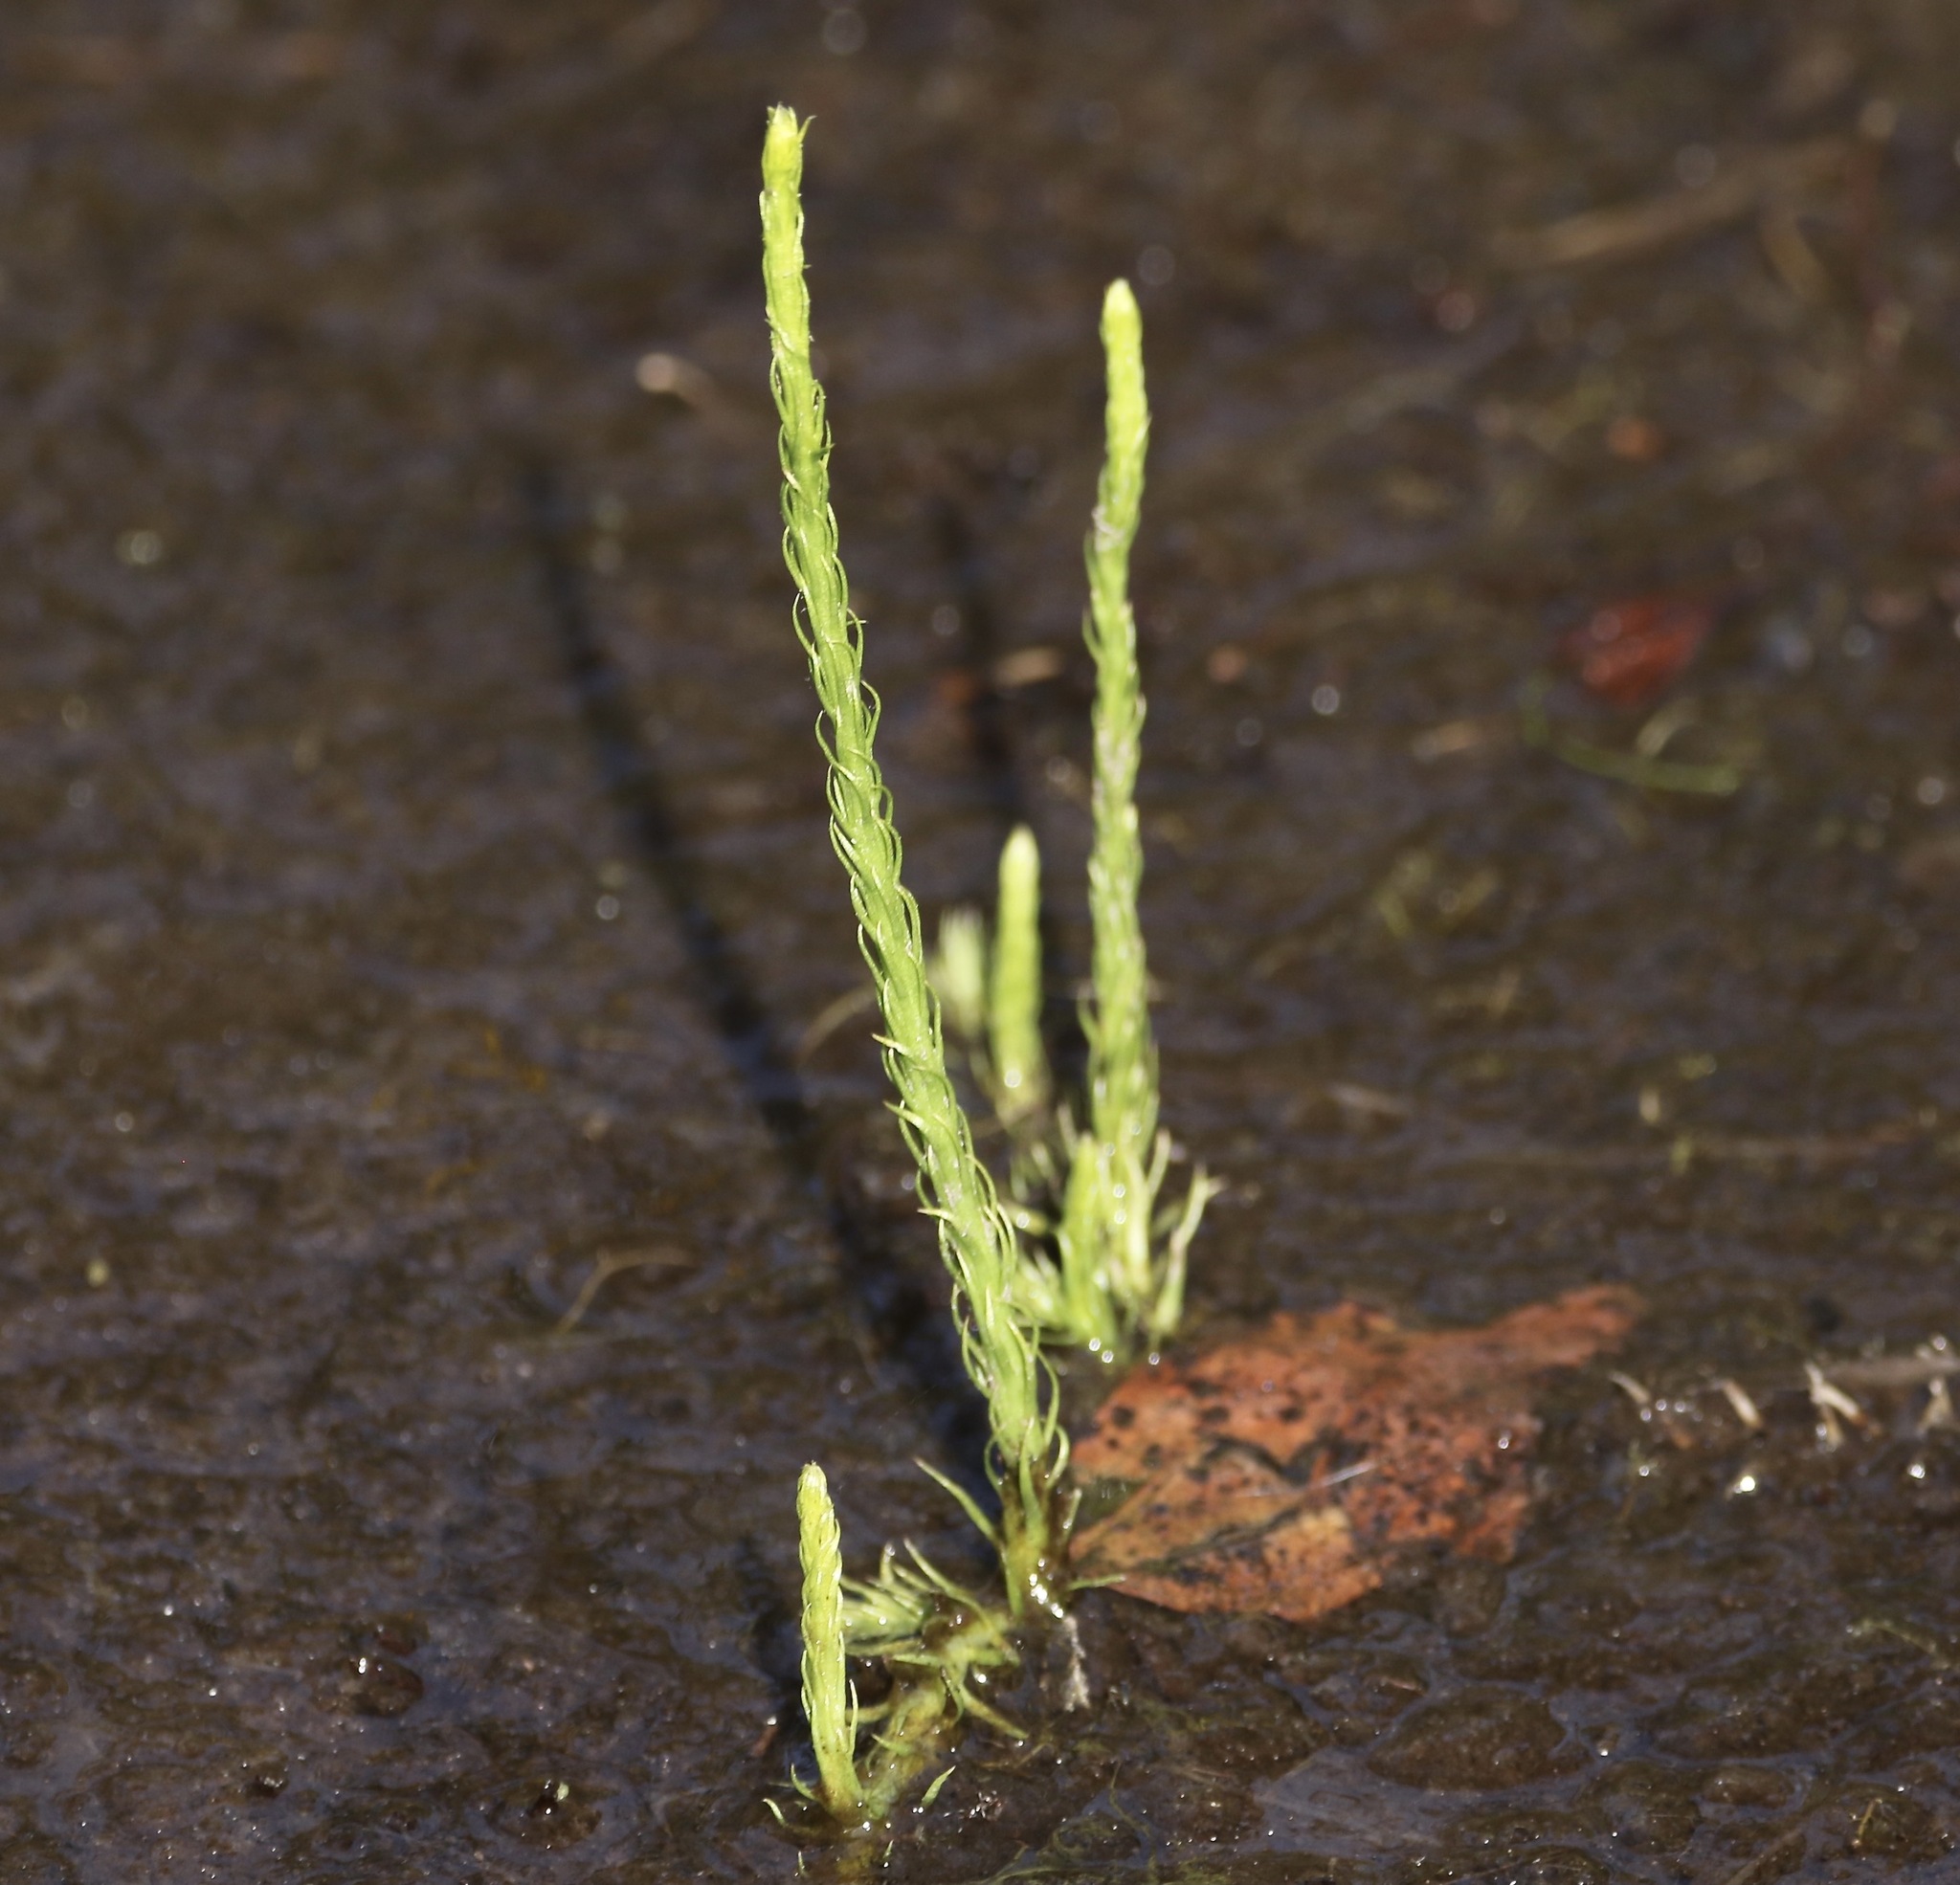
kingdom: Plantae
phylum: Tracheophyta
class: Lycopodiopsida
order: Lycopodiales
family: Lycopodiaceae
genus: Lycopodiella
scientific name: Lycopodiella appressa
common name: Appressed bog clubmoss
